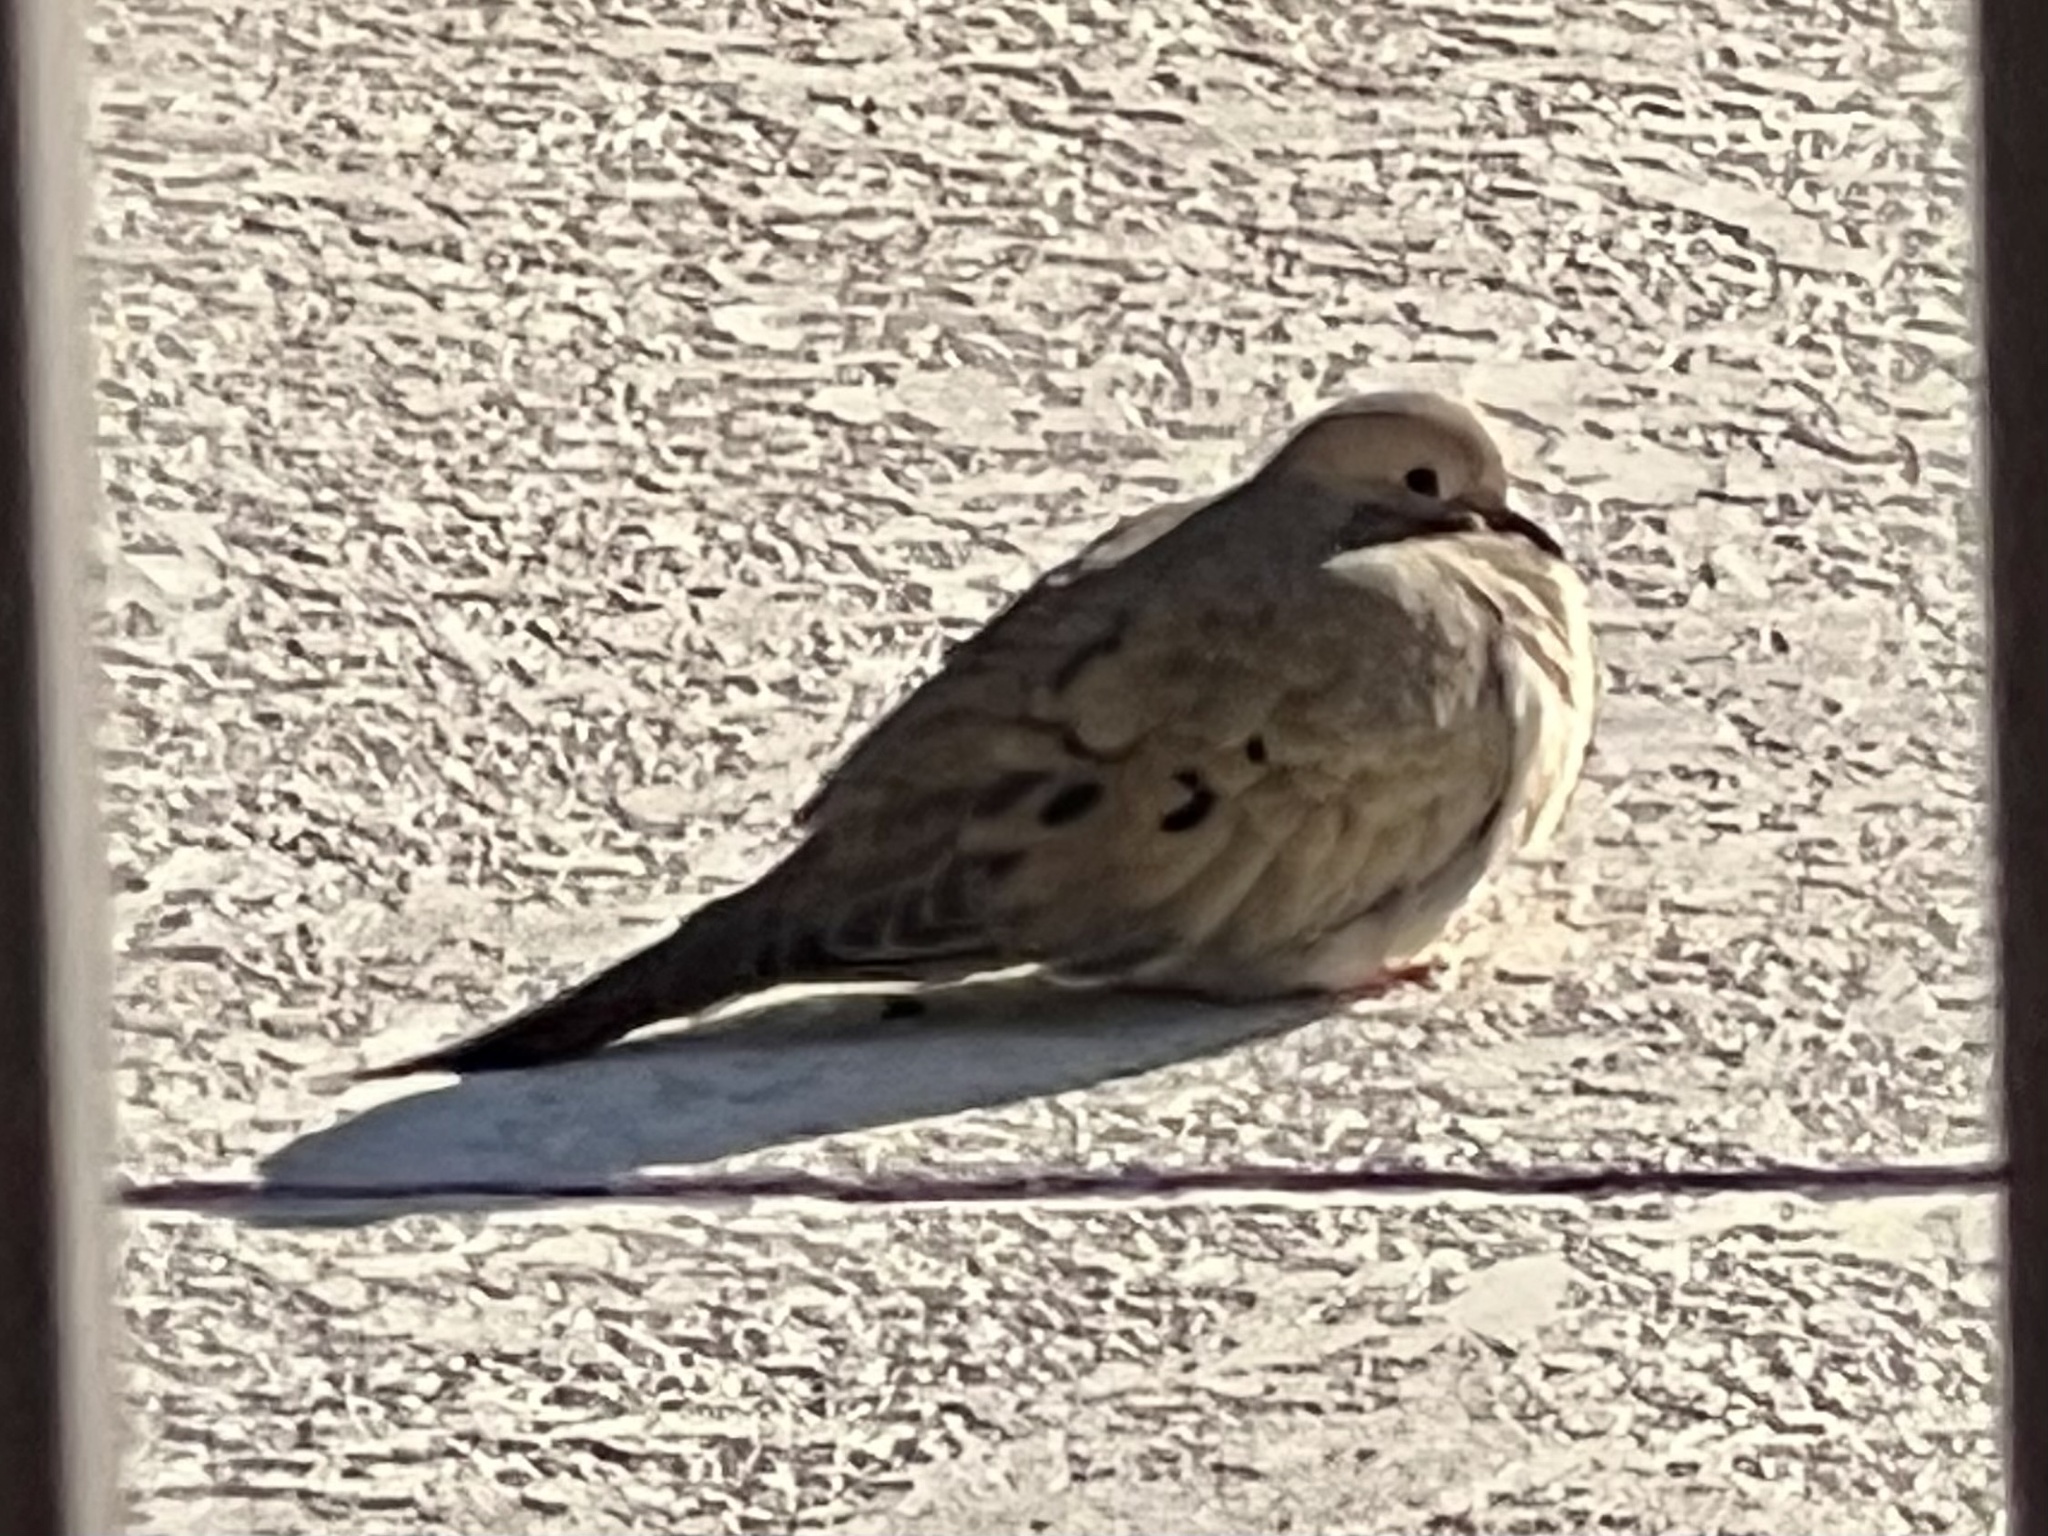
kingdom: Animalia
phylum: Chordata
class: Aves
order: Columbiformes
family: Columbidae
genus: Zenaida
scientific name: Zenaida macroura
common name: Mourning dove
